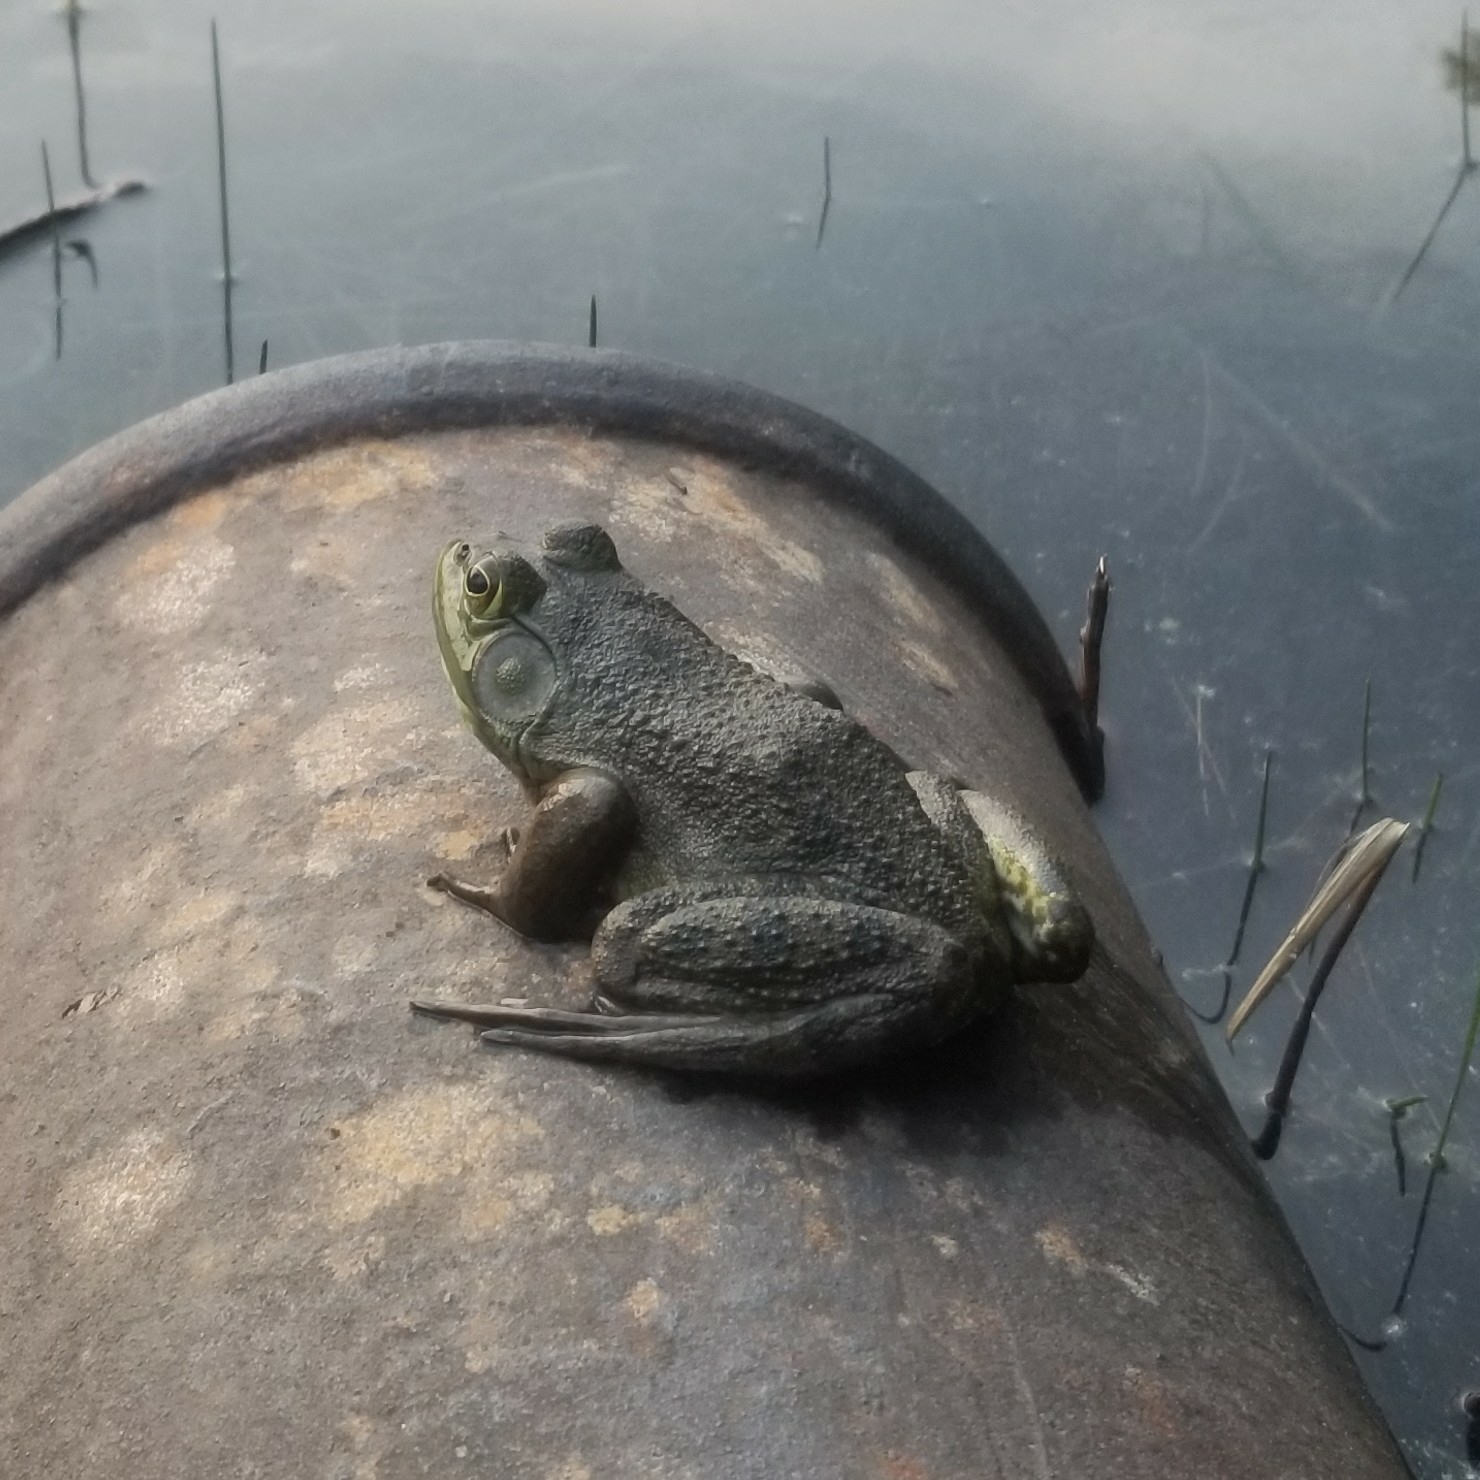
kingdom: Animalia
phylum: Chordata
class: Amphibia
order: Anura
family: Ranidae
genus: Lithobates
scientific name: Lithobates catesbeianus
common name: American bullfrog
